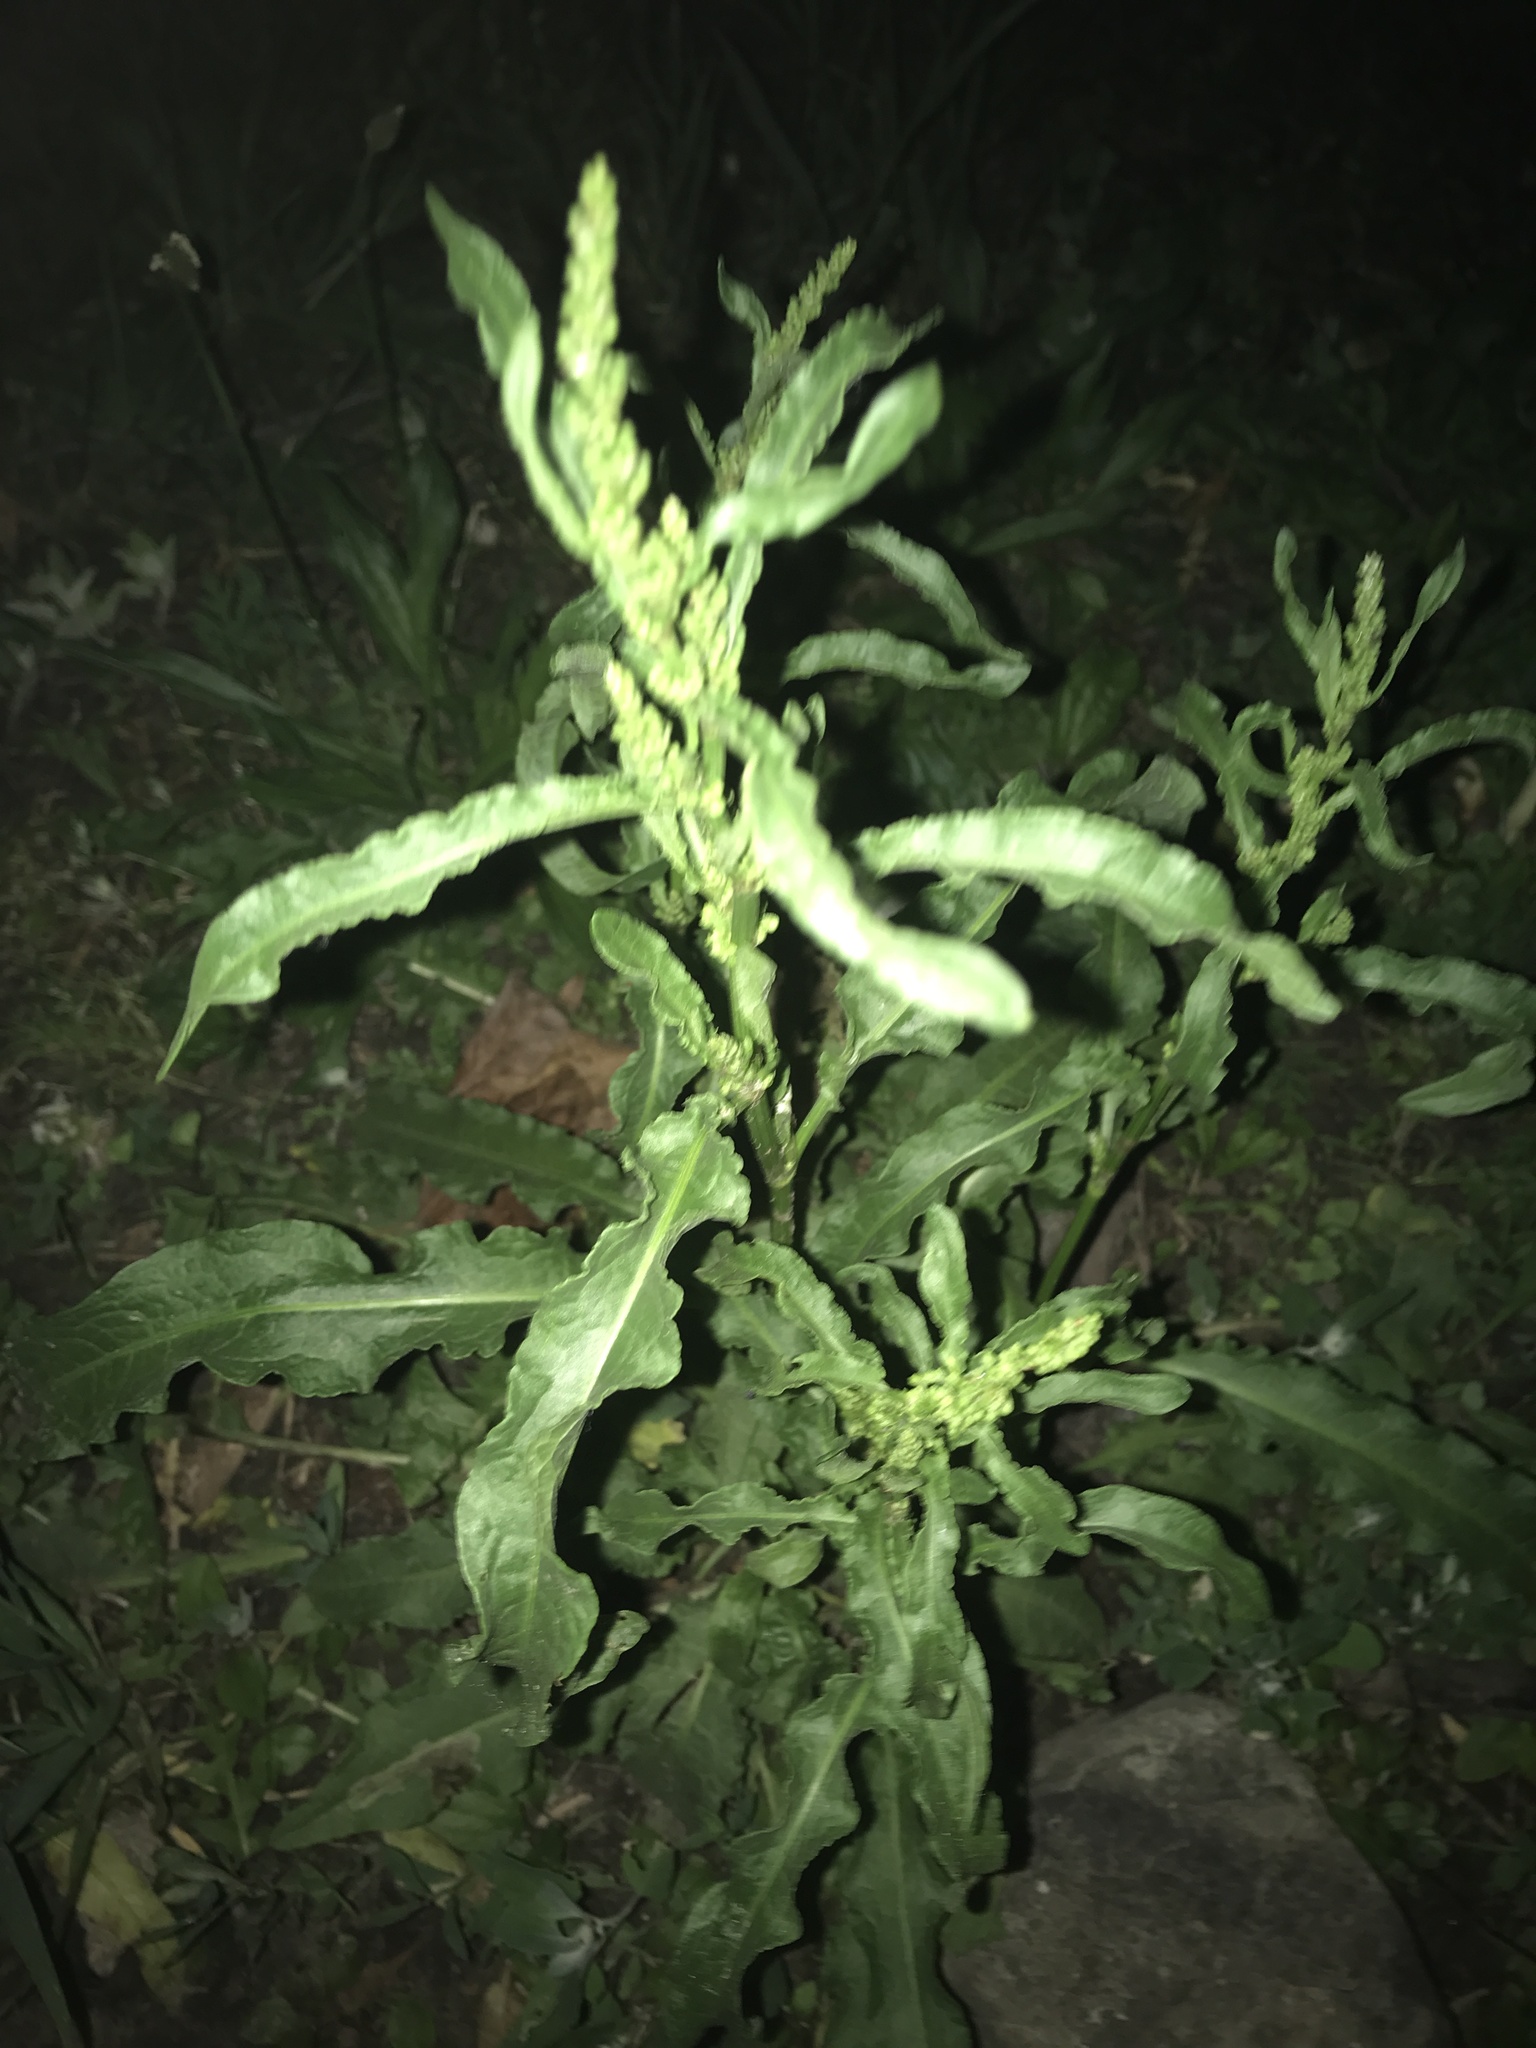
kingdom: Plantae
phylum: Tracheophyta
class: Magnoliopsida
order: Caryophyllales
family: Polygonaceae
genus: Rumex
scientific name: Rumex
